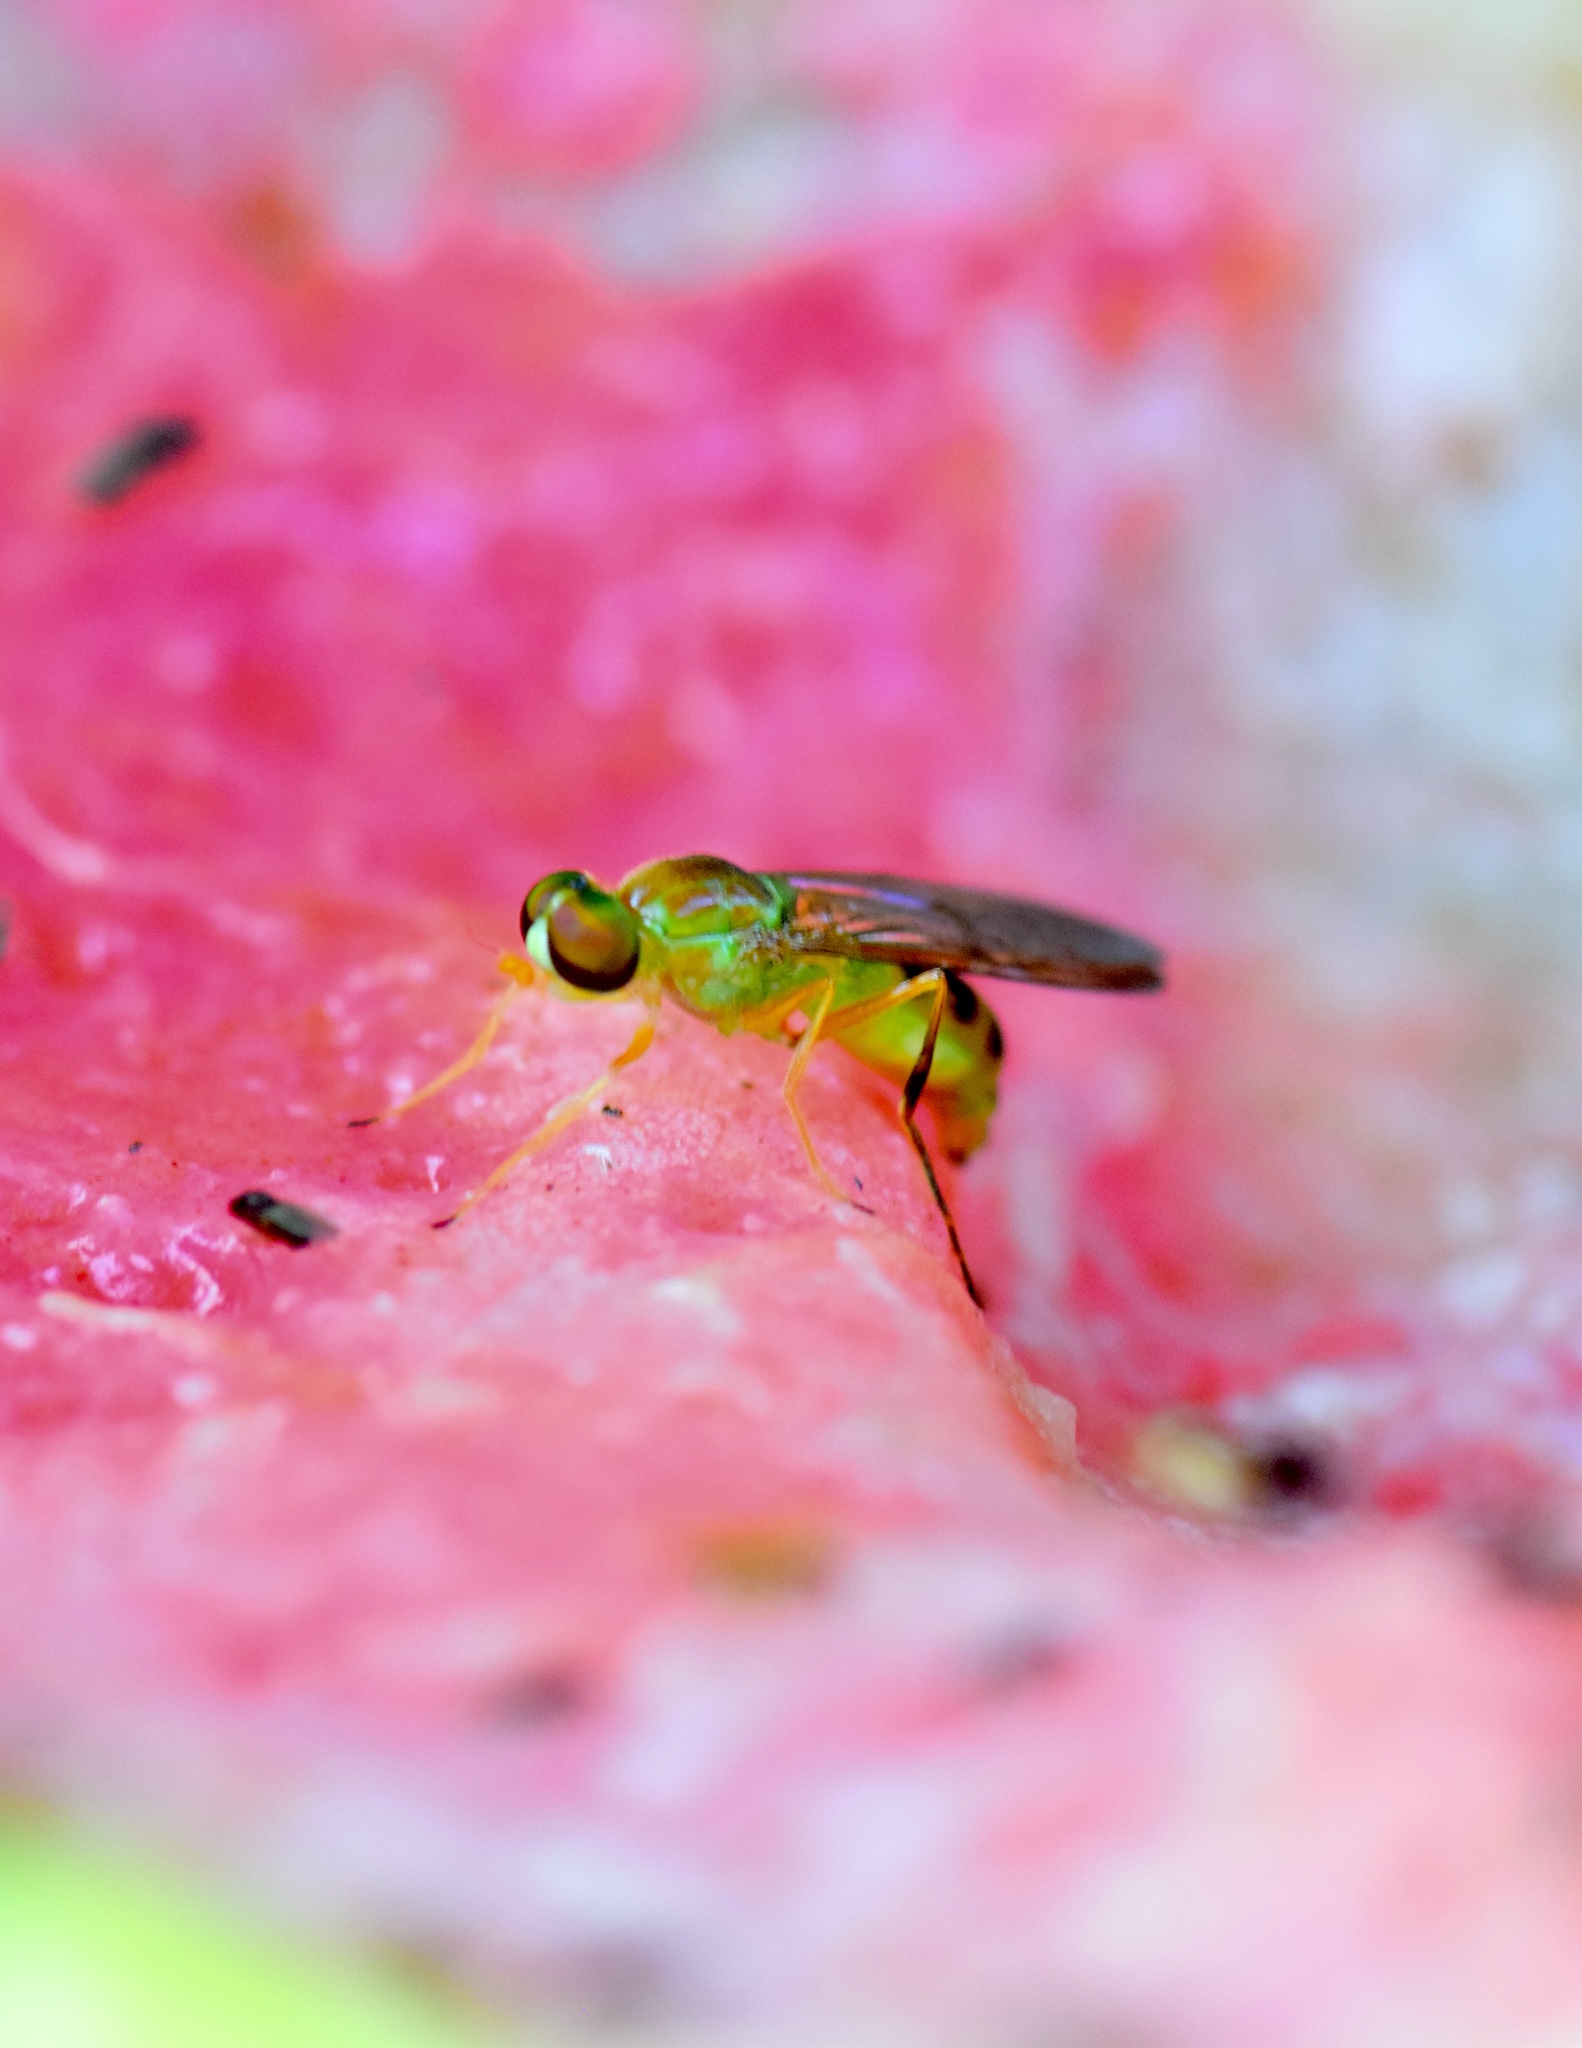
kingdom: Animalia
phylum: Arthropoda
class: Insecta
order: Diptera
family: Stratiomyidae
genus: Ptecticus
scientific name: Ptecticus trivittatus
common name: Compost fly
